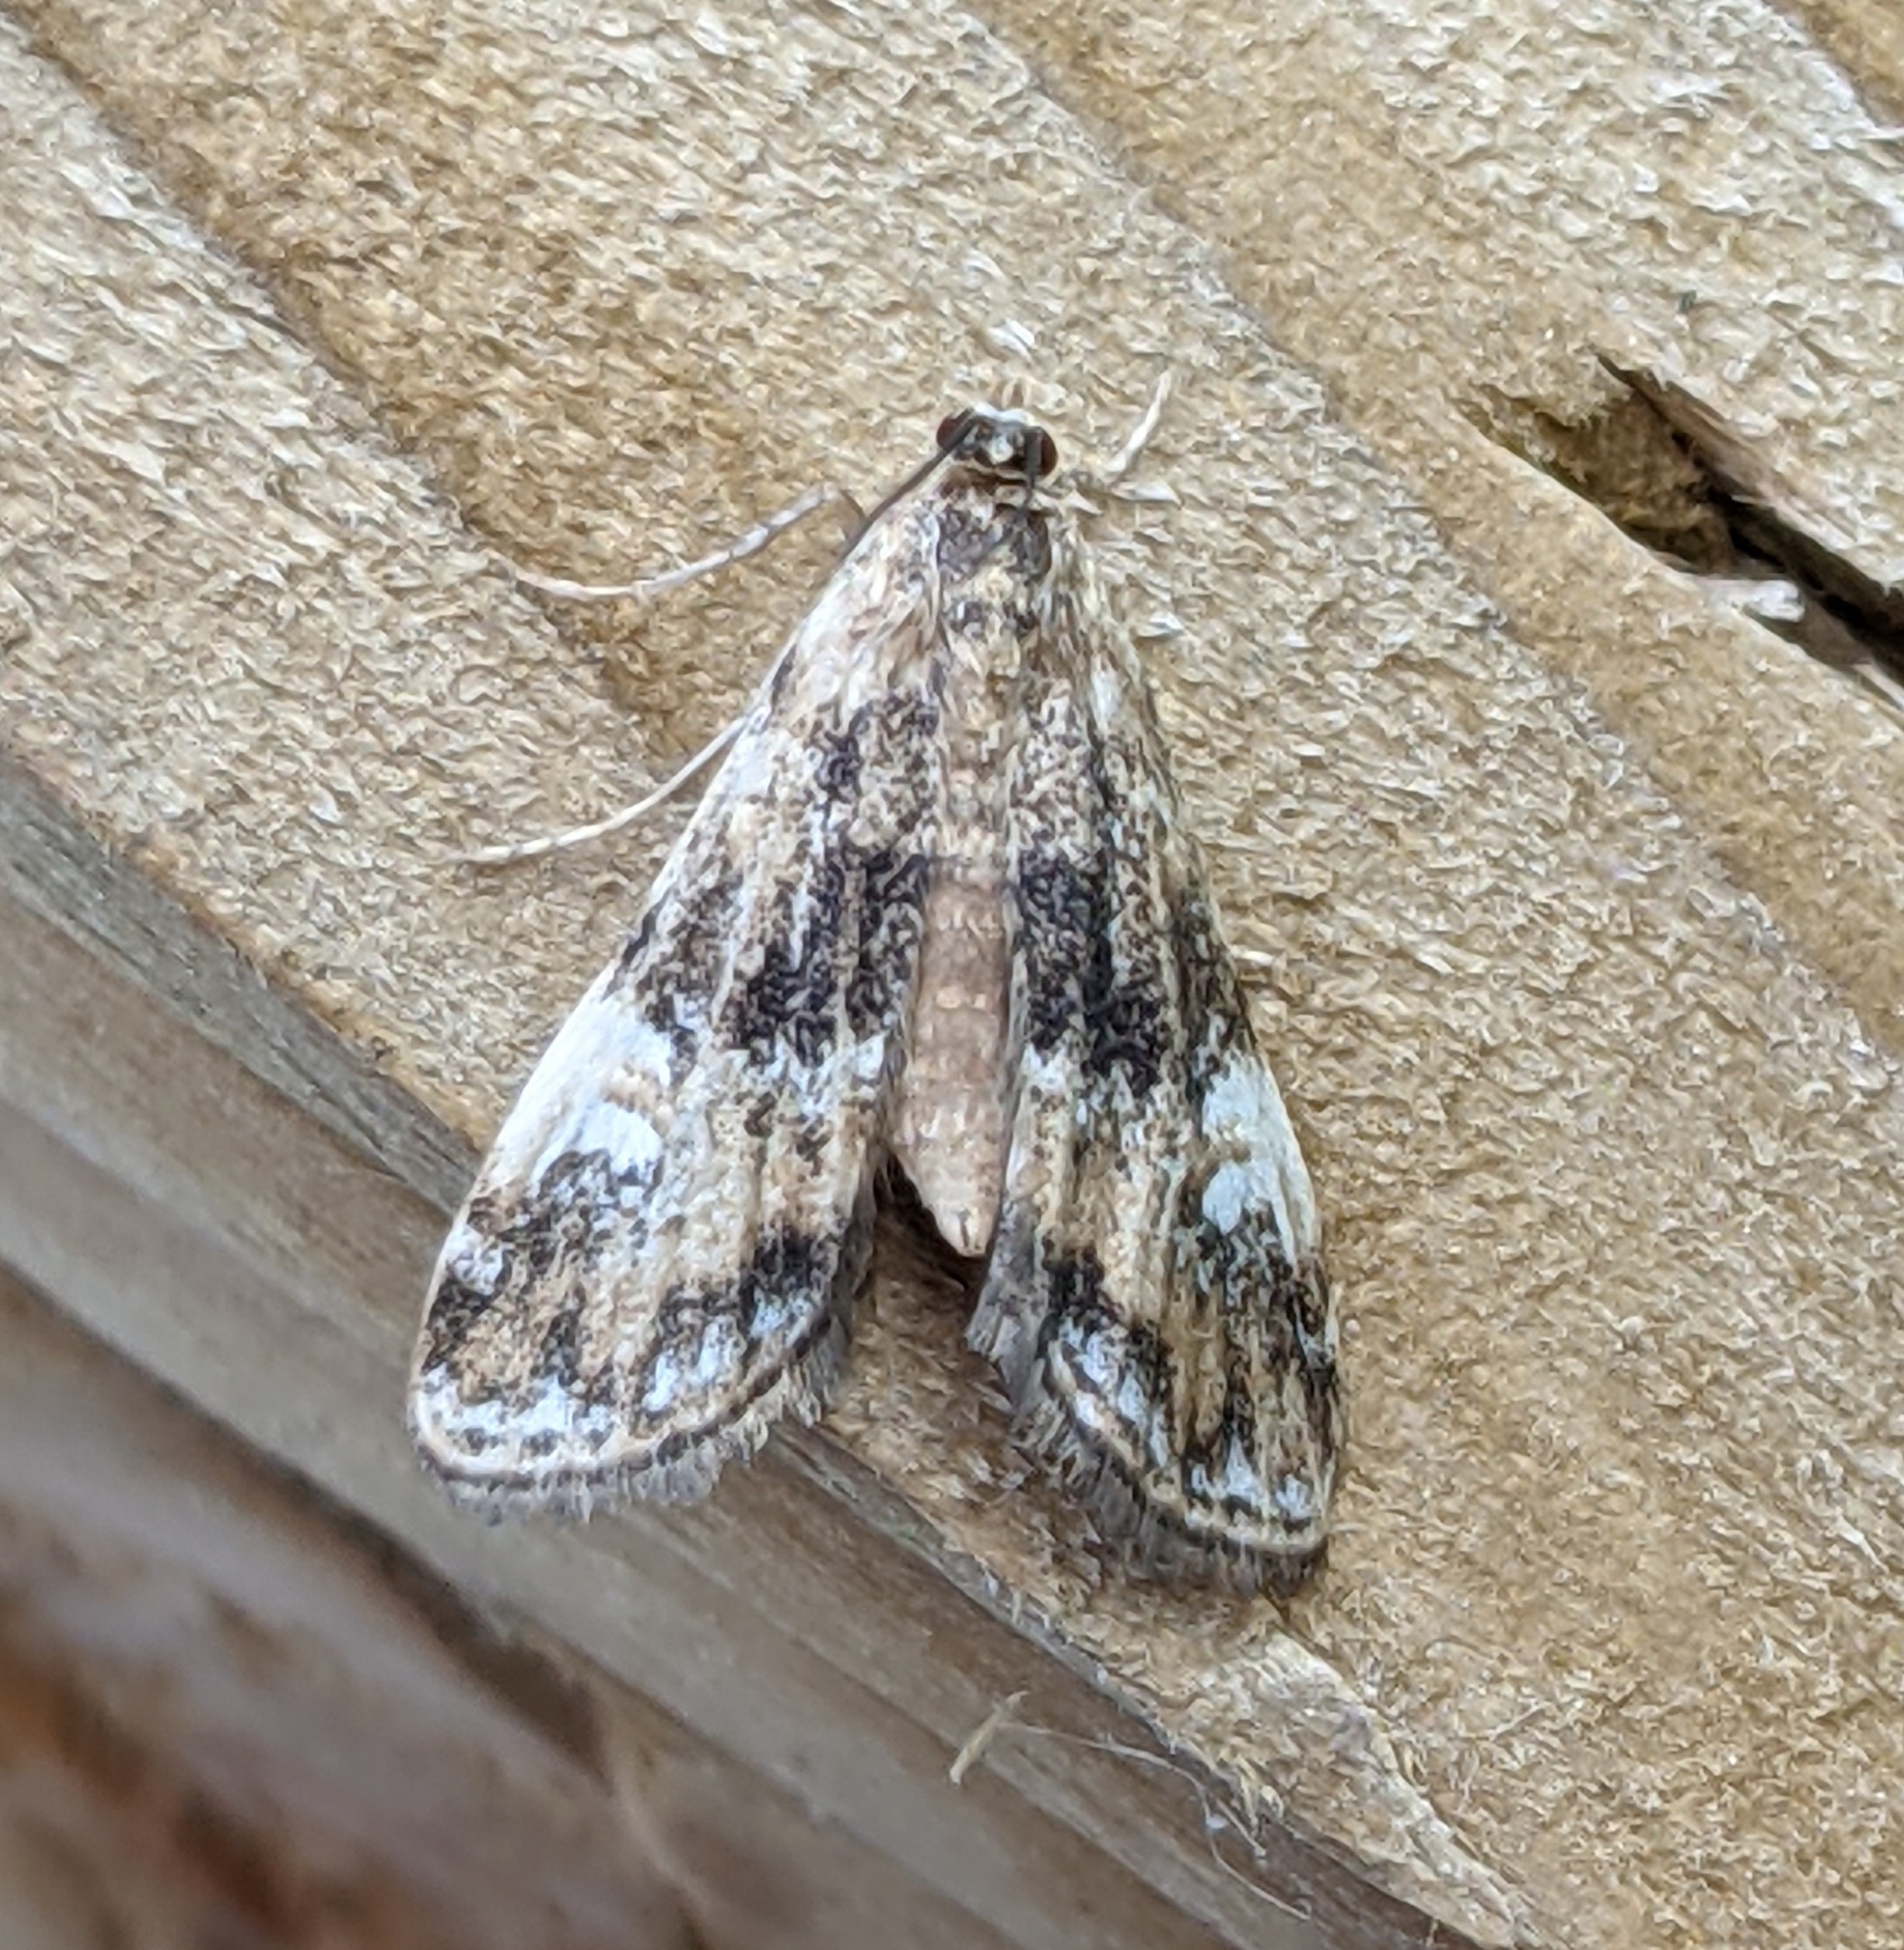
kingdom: Animalia
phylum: Arthropoda
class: Insecta
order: Lepidoptera
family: Crambidae
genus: Elophila
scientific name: Elophila obliteralis
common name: Waterlily leafcutter moth
